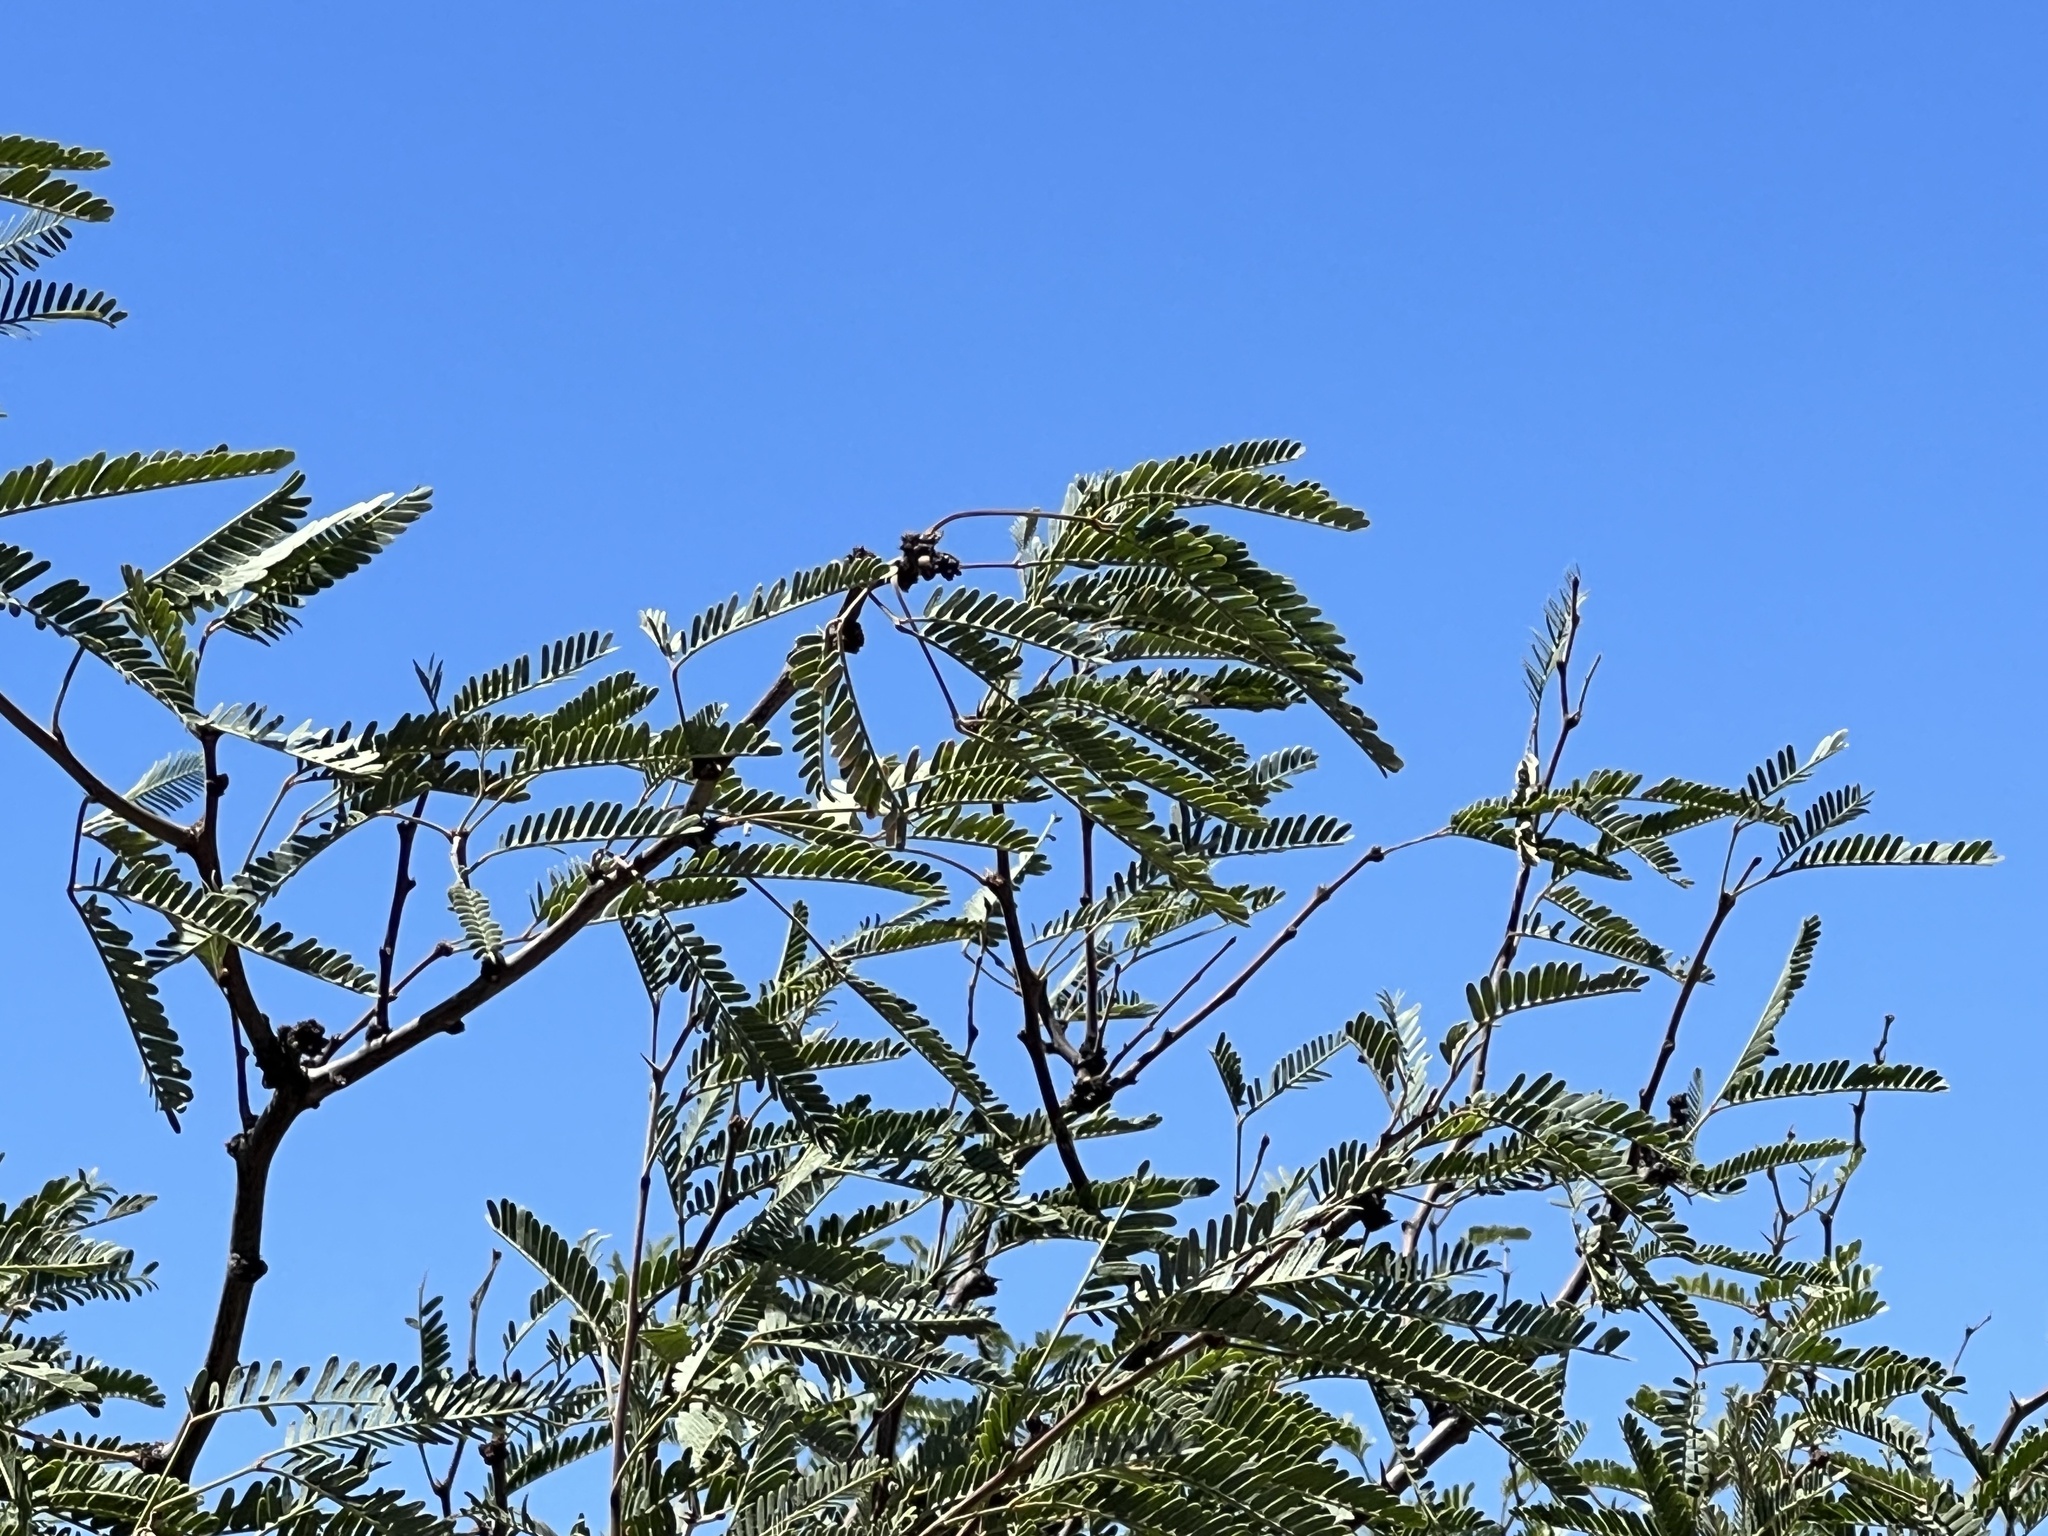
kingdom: Plantae
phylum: Tracheophyta
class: Magnoliopsida
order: Fabales
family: Fabaceae
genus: Prosopis
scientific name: Prosopis velutina
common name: Velvet mesquite
